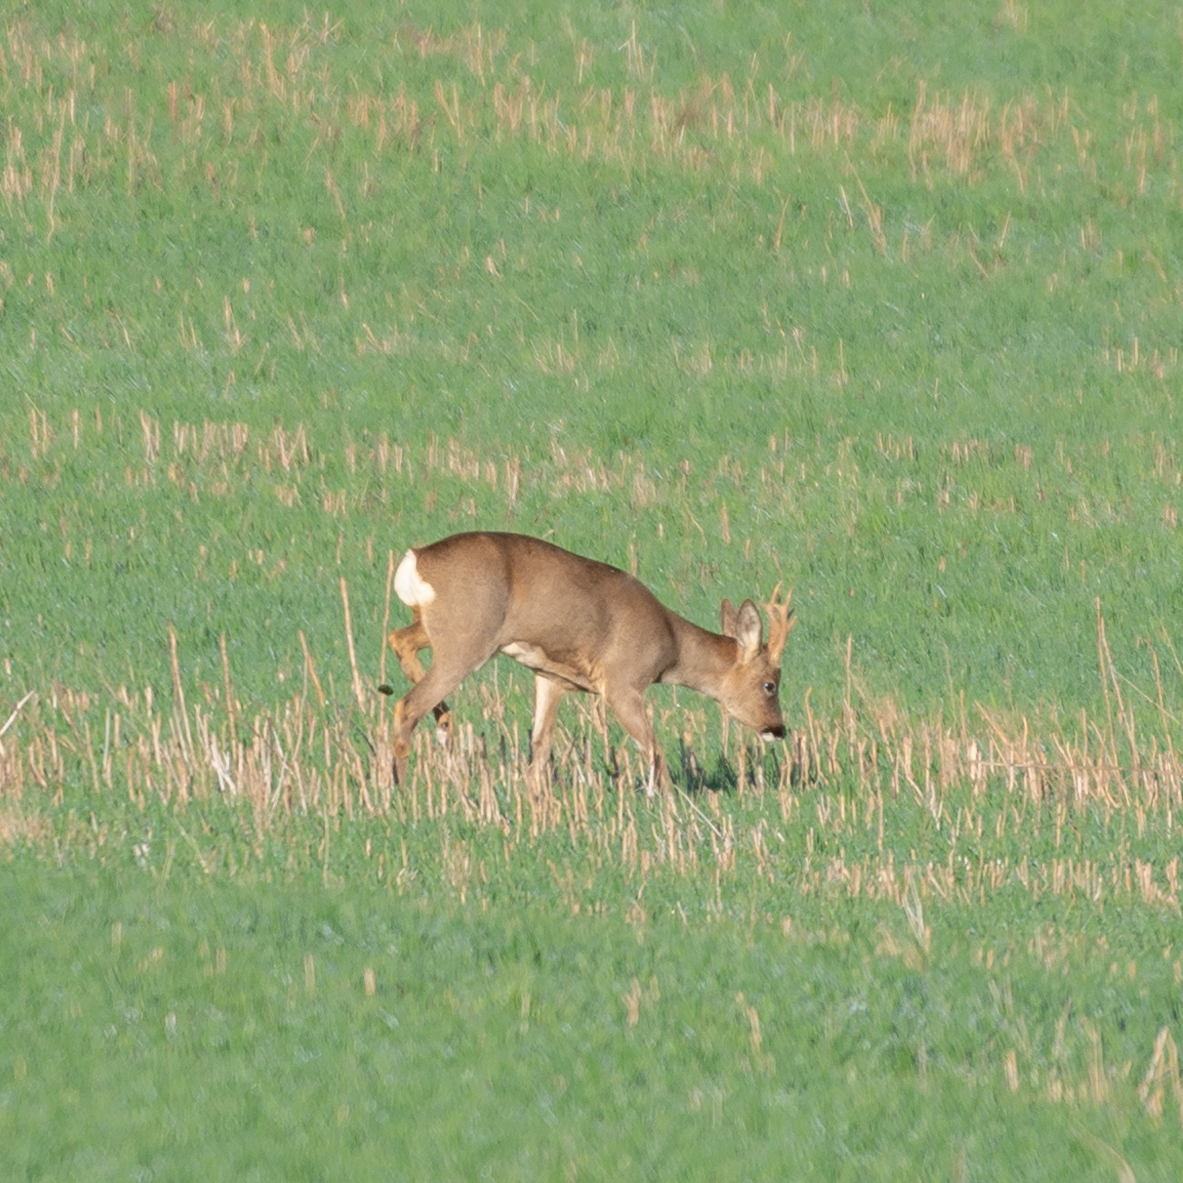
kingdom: Animalia
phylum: Chordata
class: Mammalia
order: Artiodactyla
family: Cervidae
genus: Capreolus
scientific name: Capreolus capreolus
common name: Western roe deer
